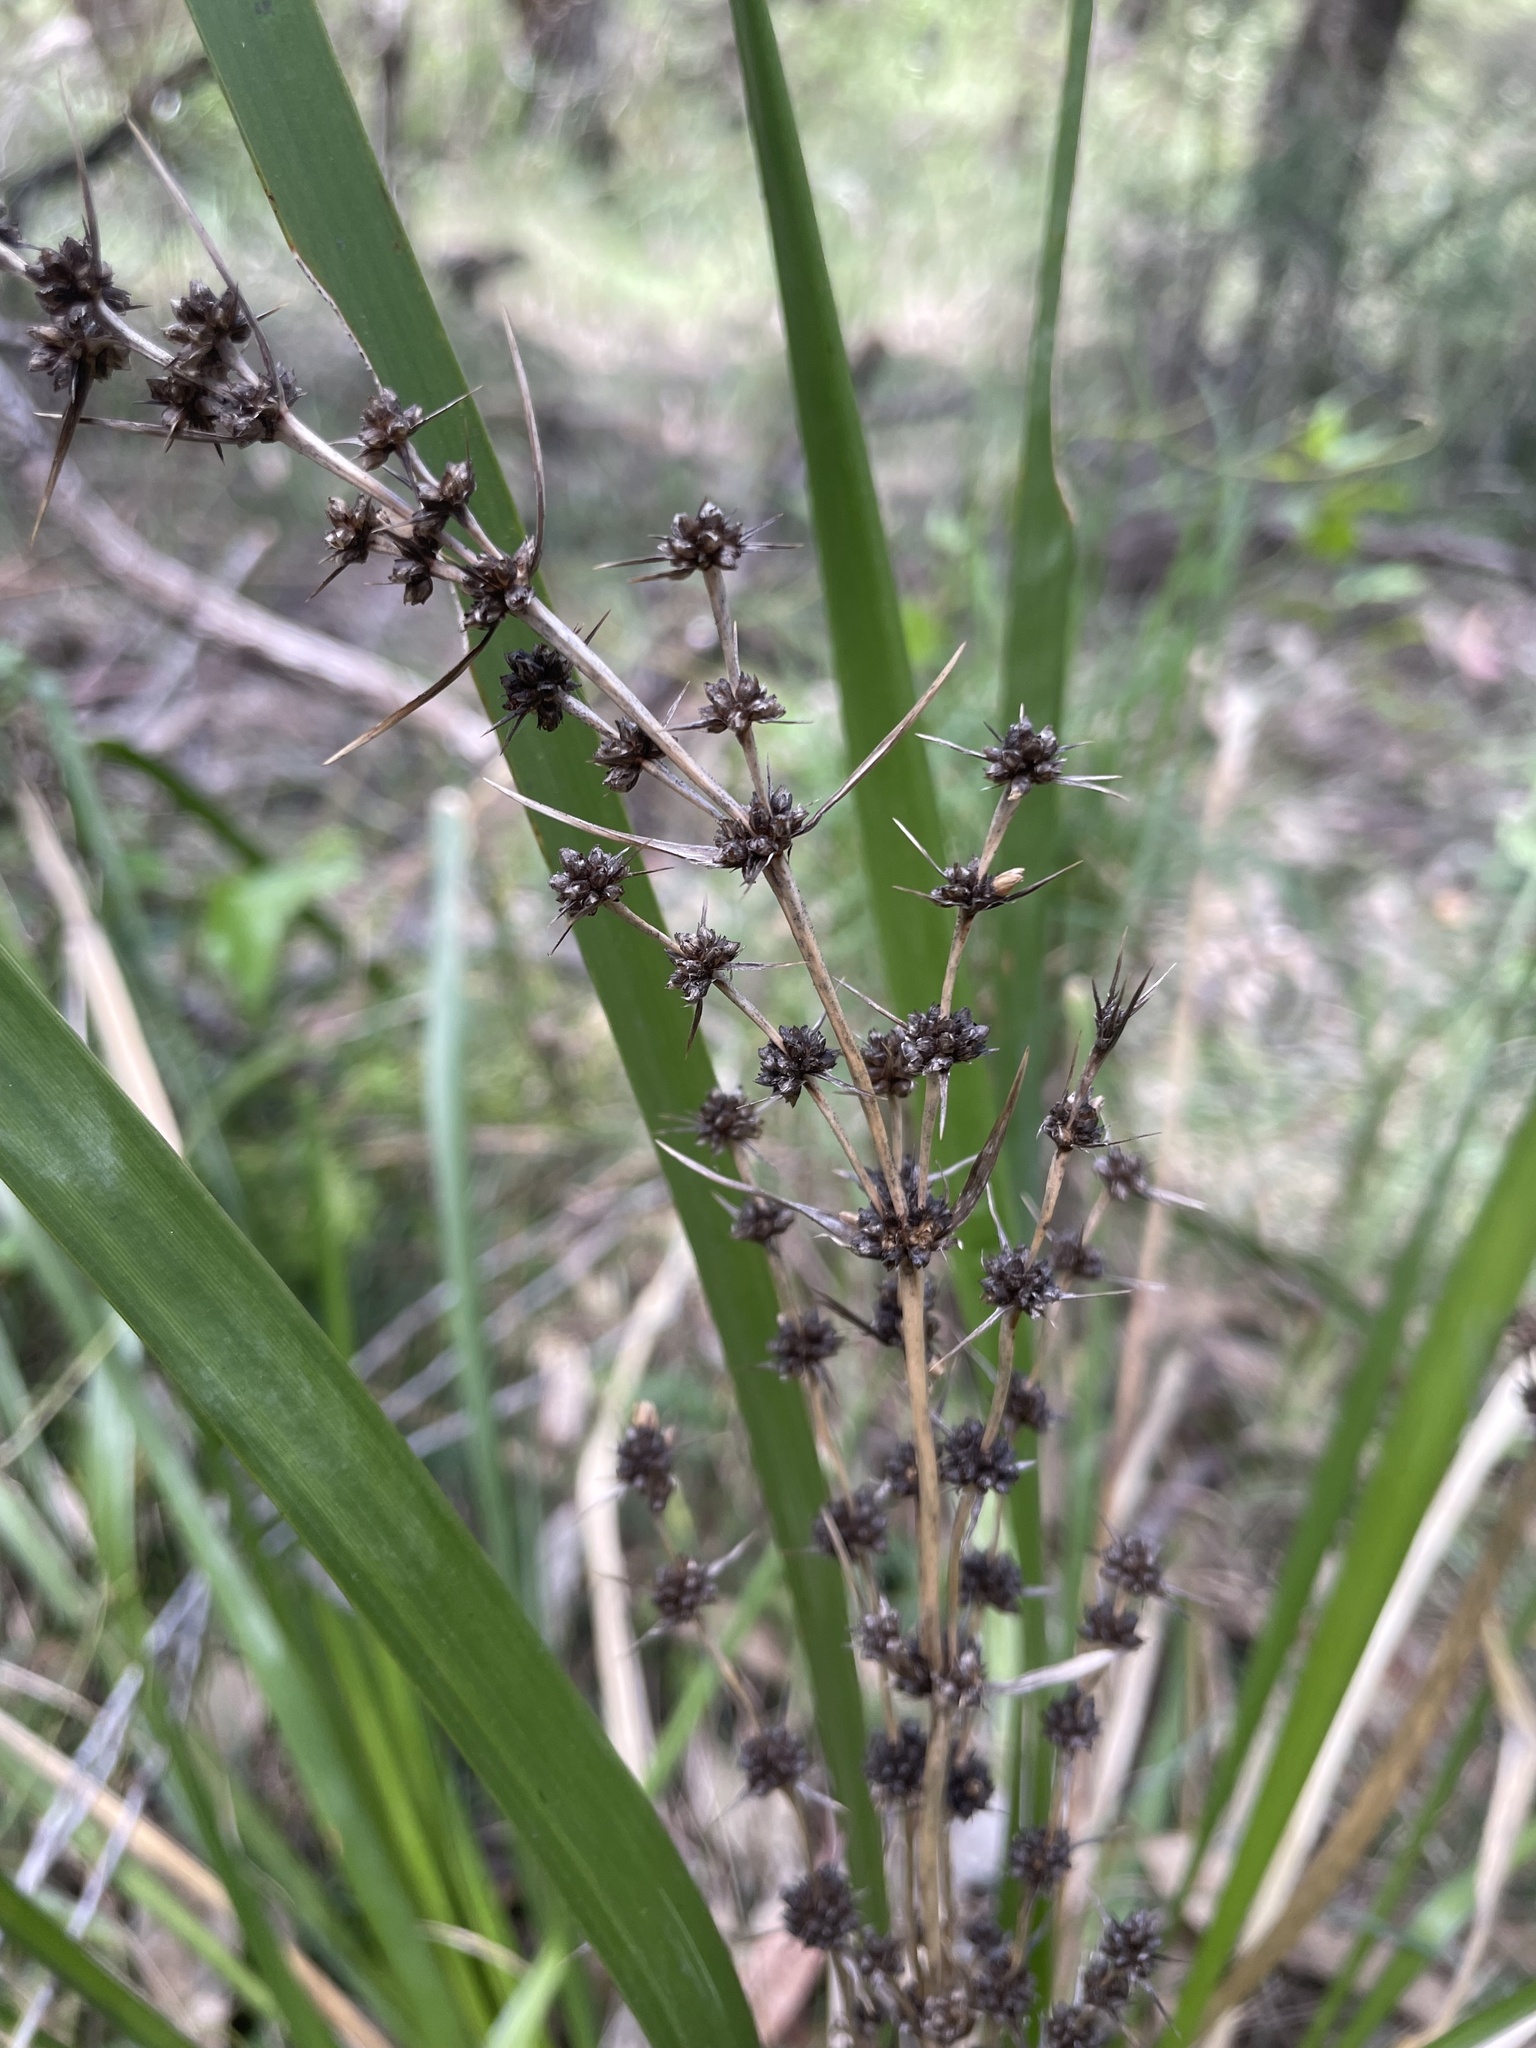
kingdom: Plantae
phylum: Tracheophyta
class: Liliopsida
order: Asparagales
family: Asparagaceae
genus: Lomandra
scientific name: Lomandra longifolia
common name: Longleaf mat-rush
